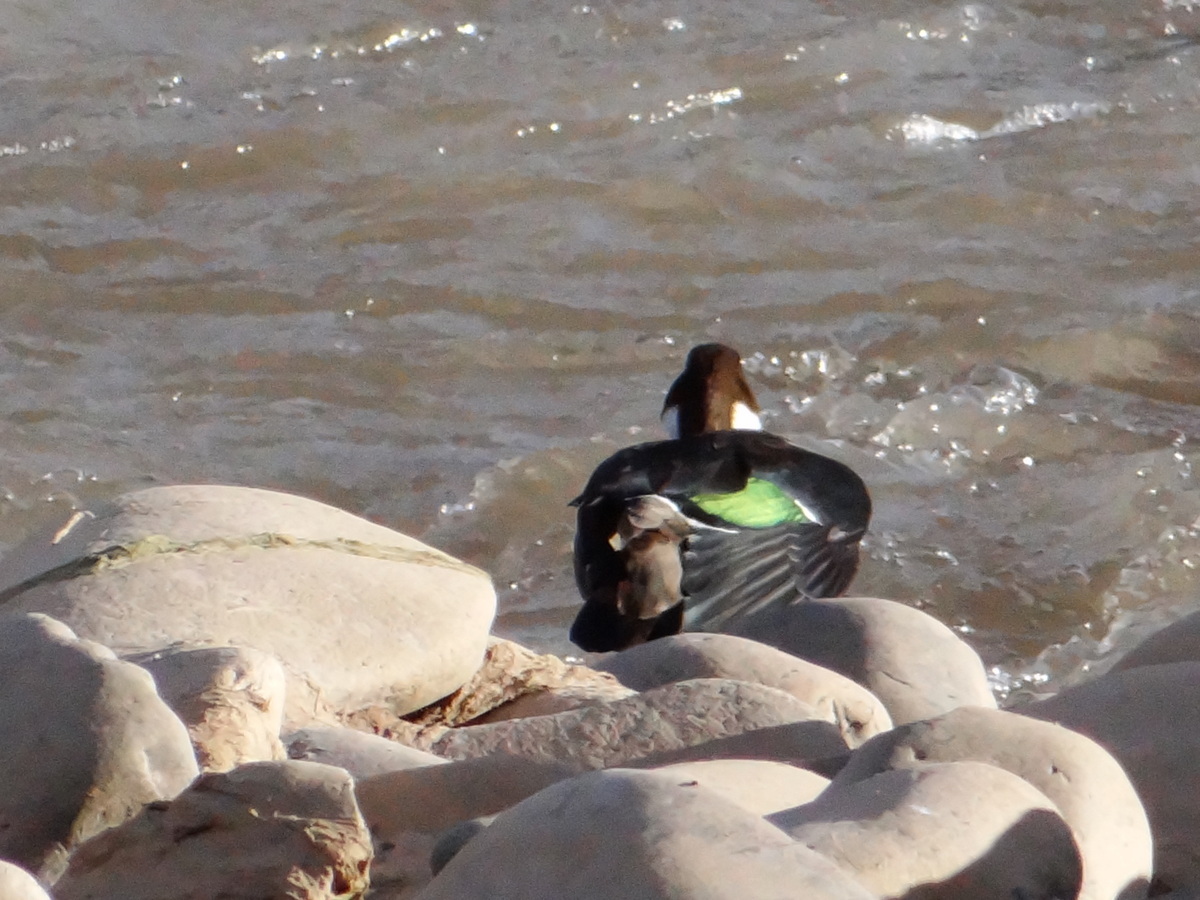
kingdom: Animalia
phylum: Chordata
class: Aves
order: Anseriformes
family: Anatidae
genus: Speculanas
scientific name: Speculanas specularis
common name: Bronze-winged duck
